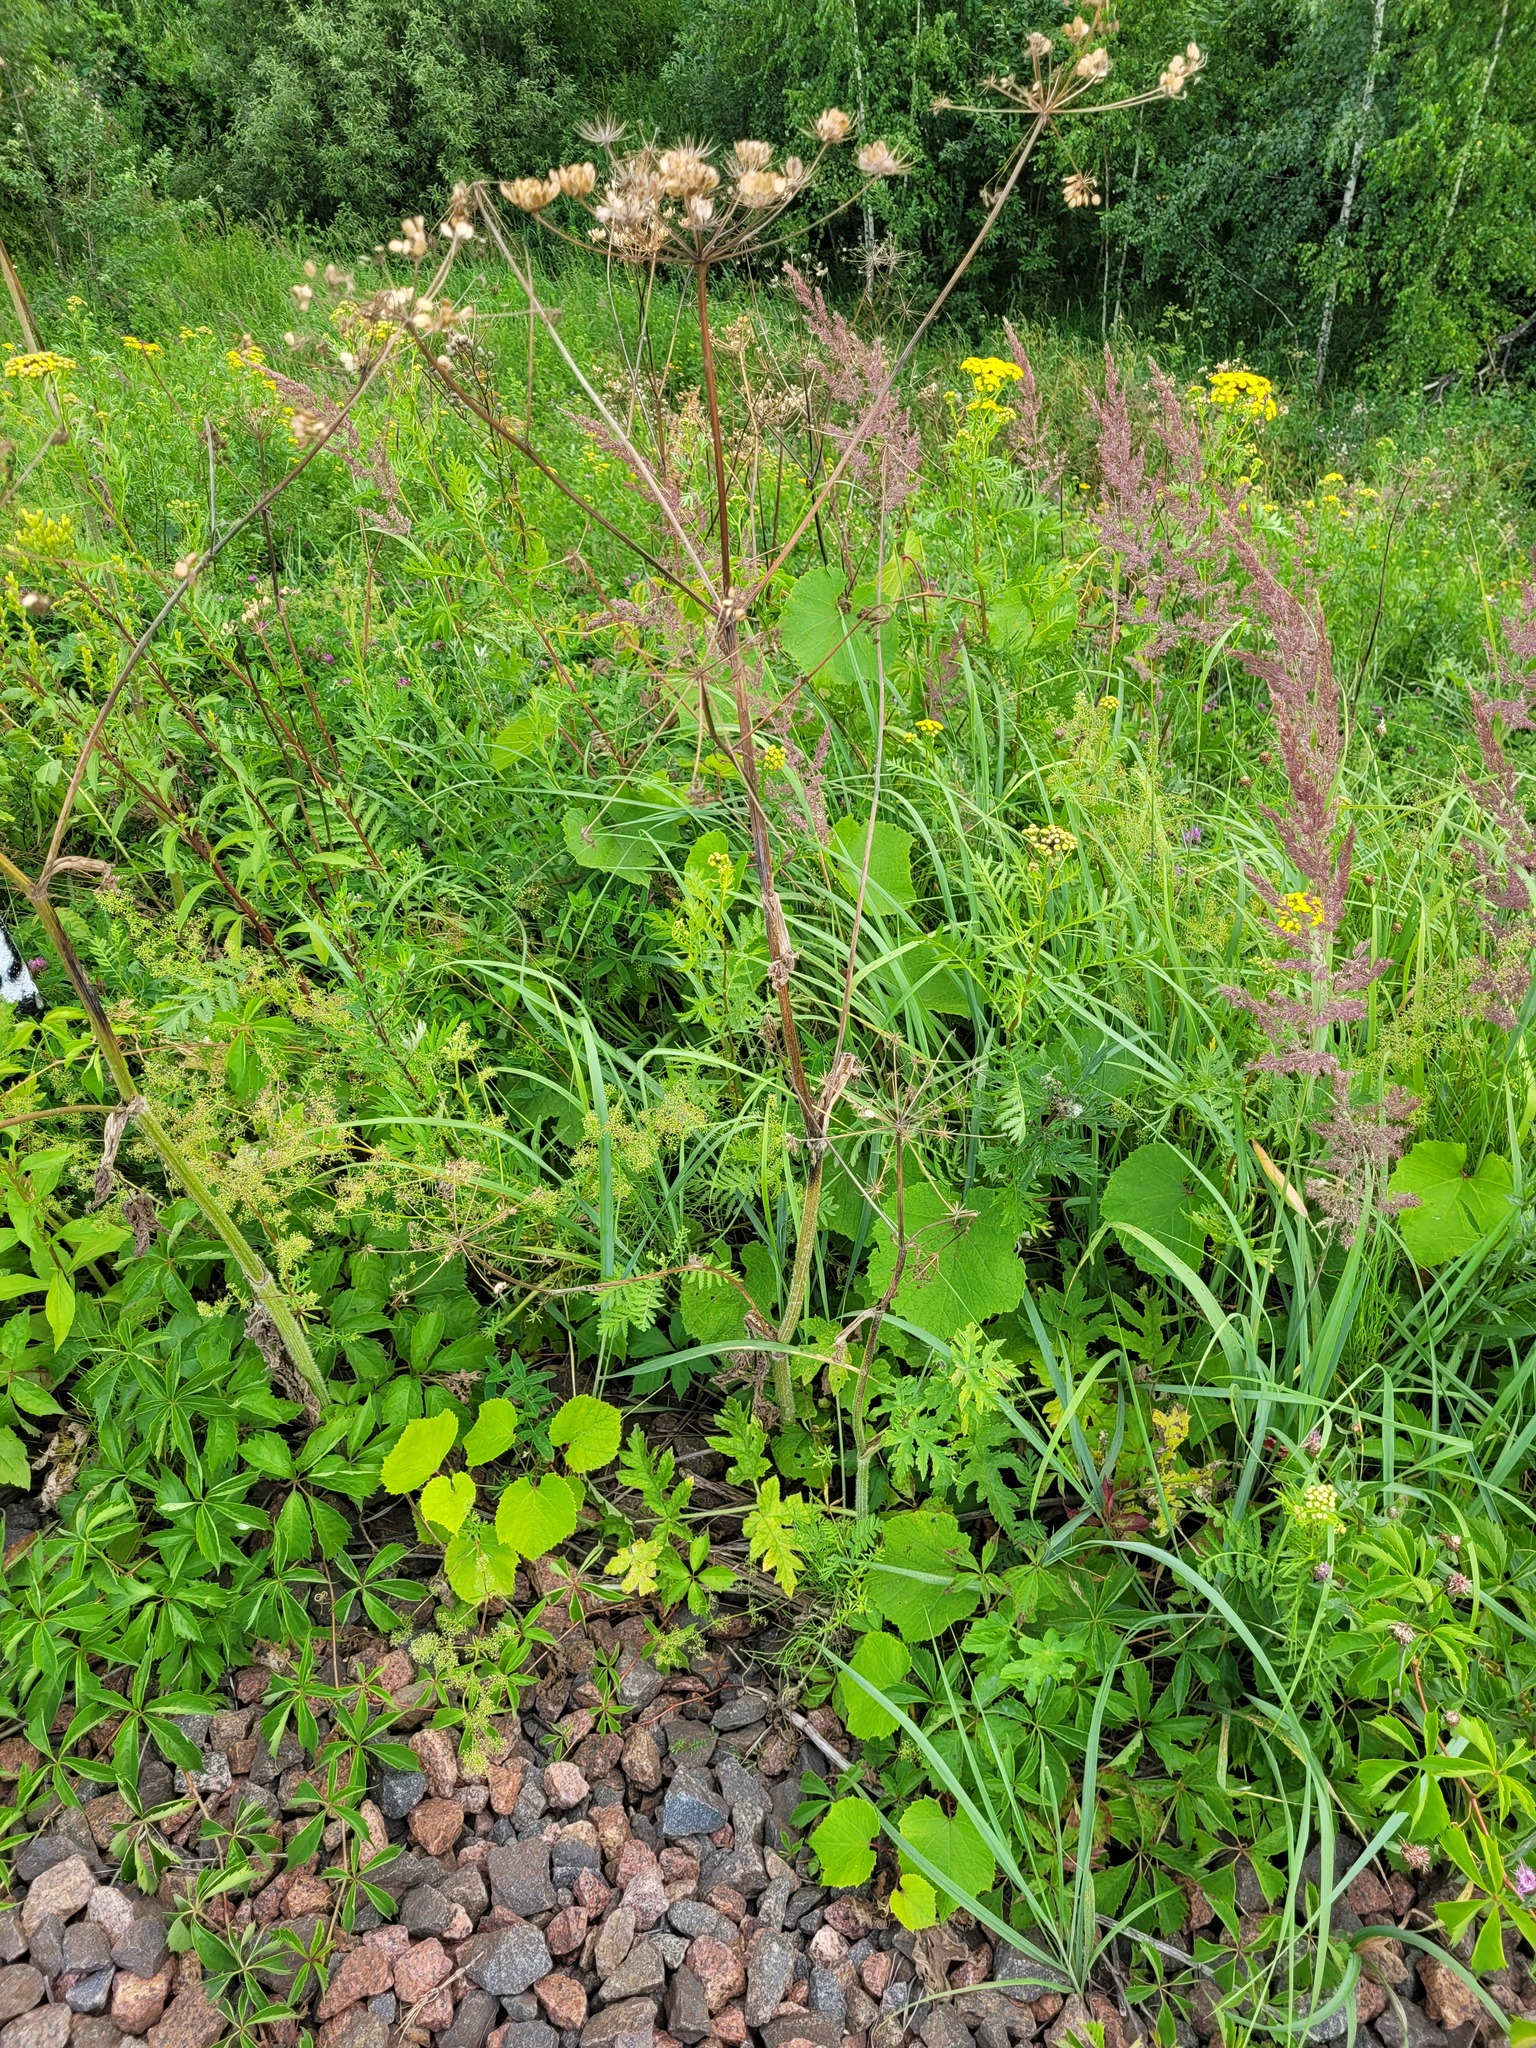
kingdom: Plantae
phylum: Tracheophyta
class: Magnoliopsida
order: Apiales
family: Apiaceae
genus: Heracleum
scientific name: Heracleum sphondylium
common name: Hogweed
